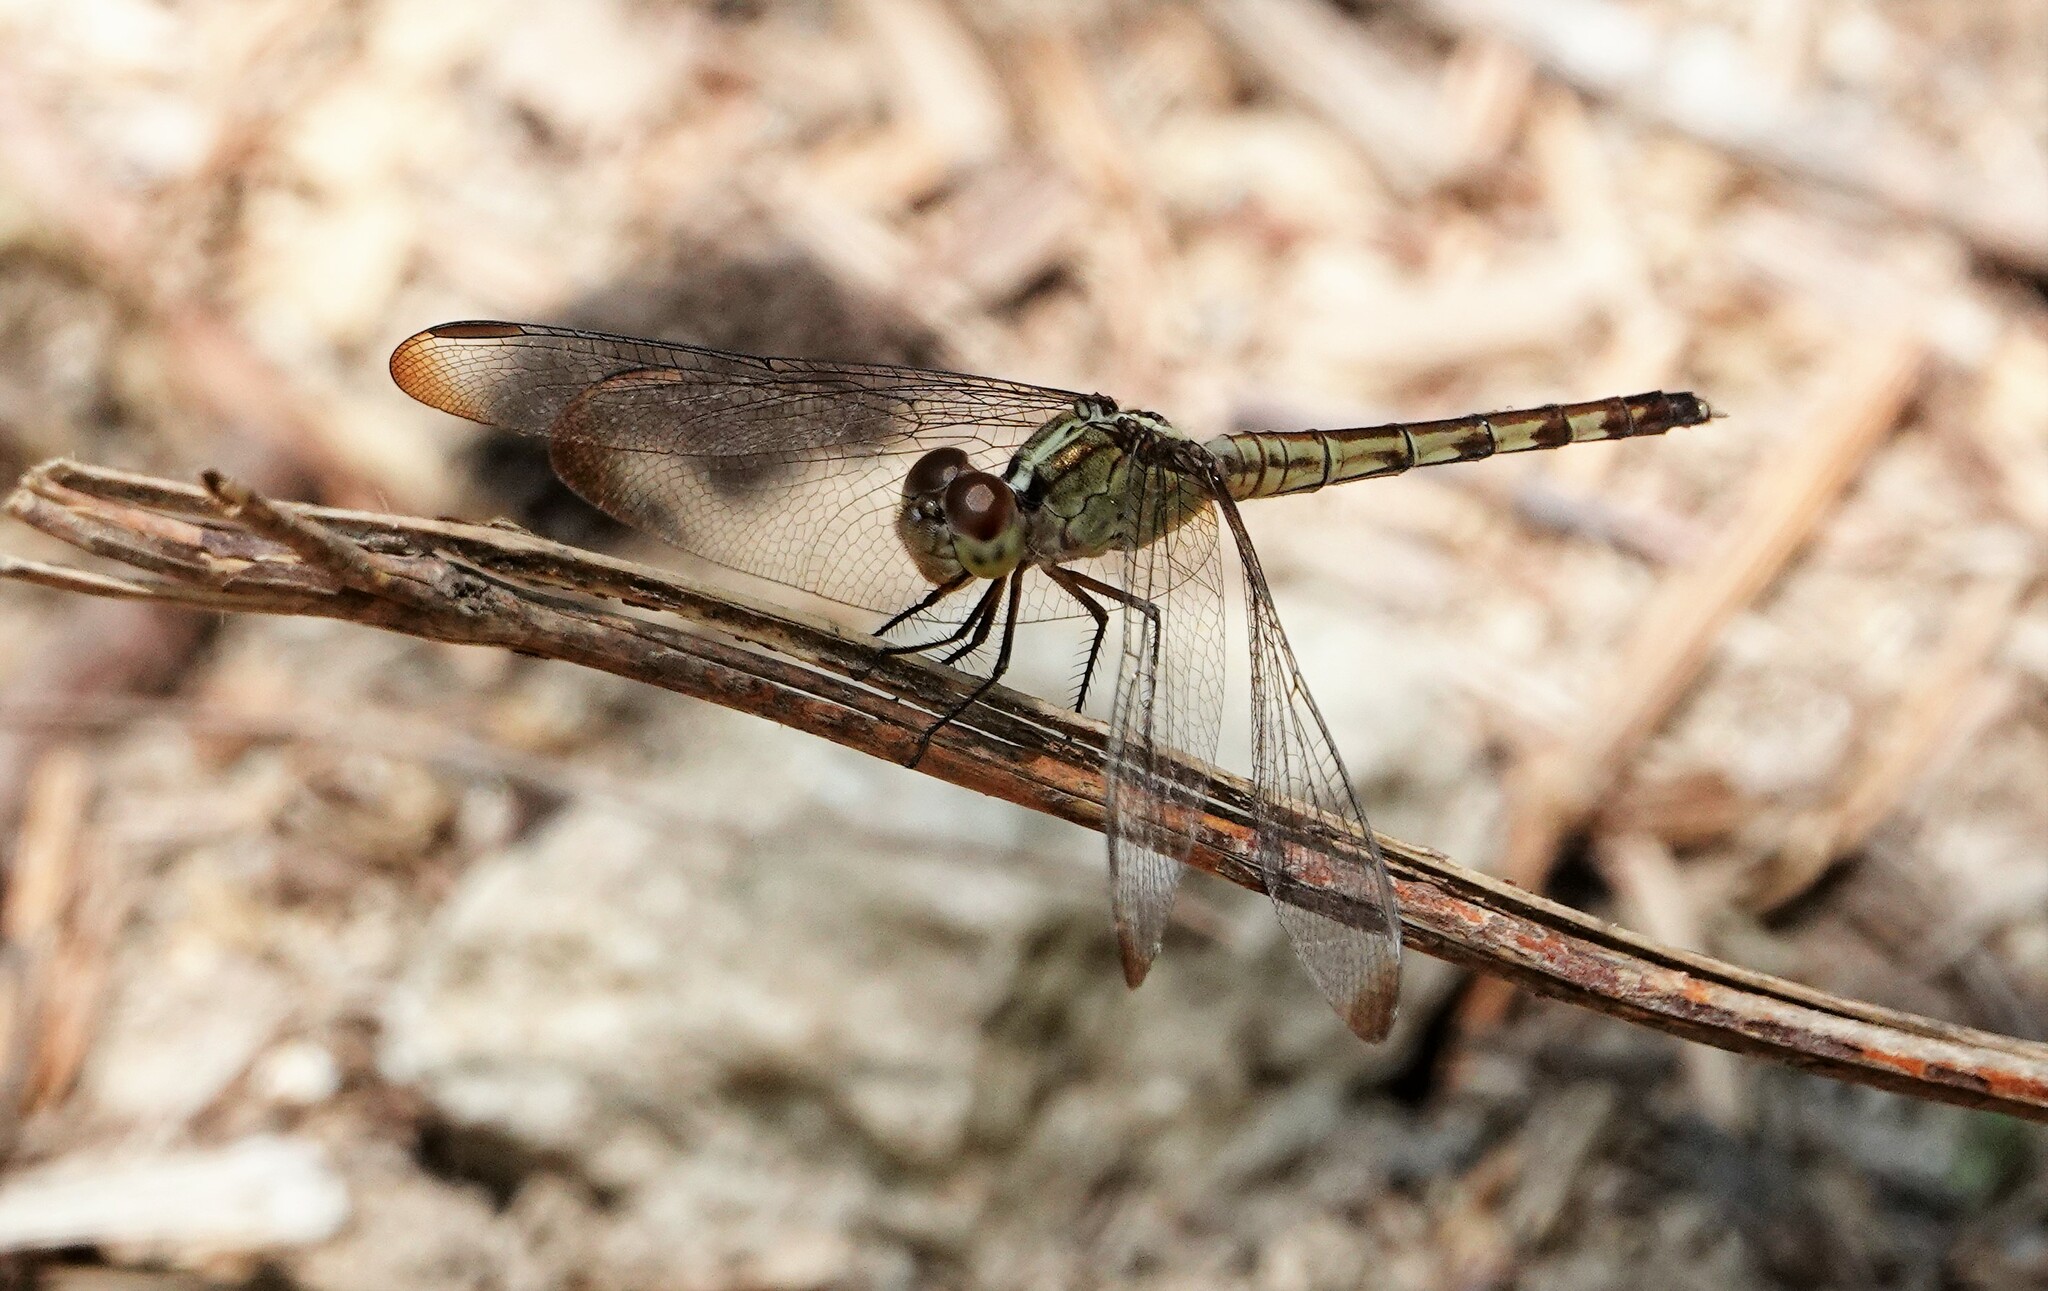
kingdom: Animalia
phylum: Arthropoda
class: Insecta
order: Odonata
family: Libellulidae
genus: Erythrodiplax
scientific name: Erythrodiplax umbrata
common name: Band-winged dragonlet
